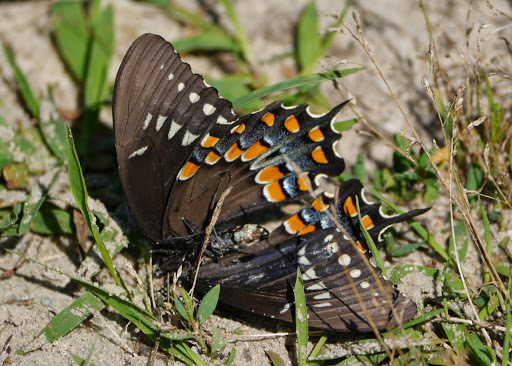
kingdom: Animalia
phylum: Arthropoda
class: Insecta
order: Lepidoptera
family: Papilionidae
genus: Papilio
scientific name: Papilio troilus
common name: Spicebush swallowtail
